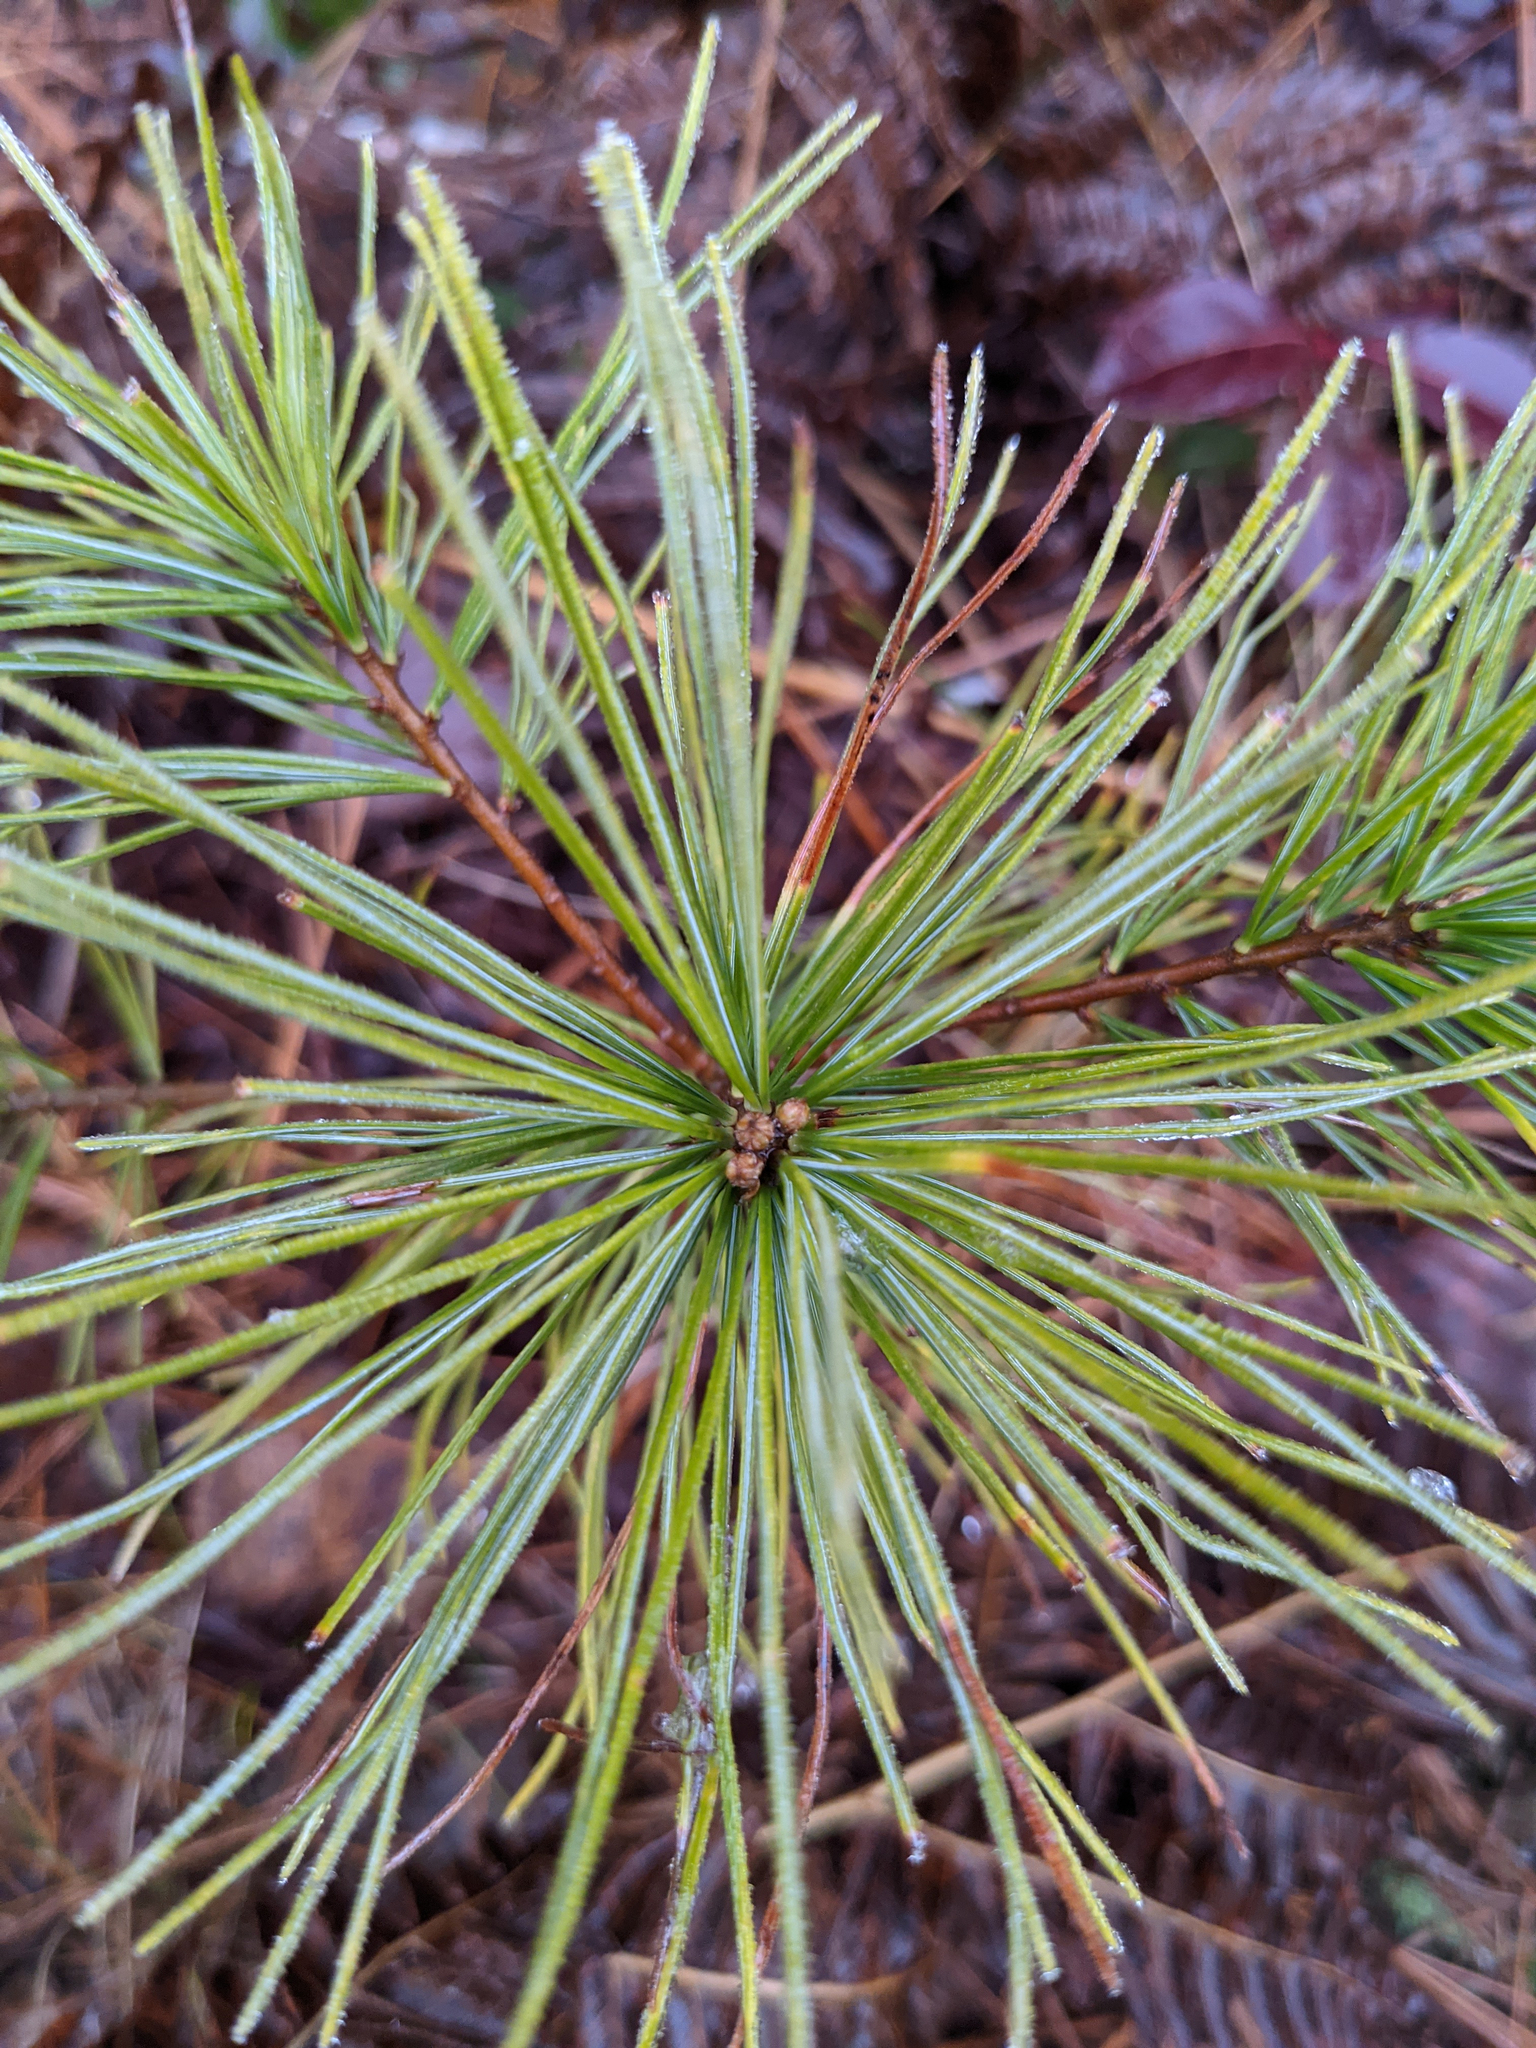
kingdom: Plantae
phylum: Tracheophyta
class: Pinopsida
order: Pinales
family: Pinaceae
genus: Pinus
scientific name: Pinus strobus
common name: Weymouth pine
